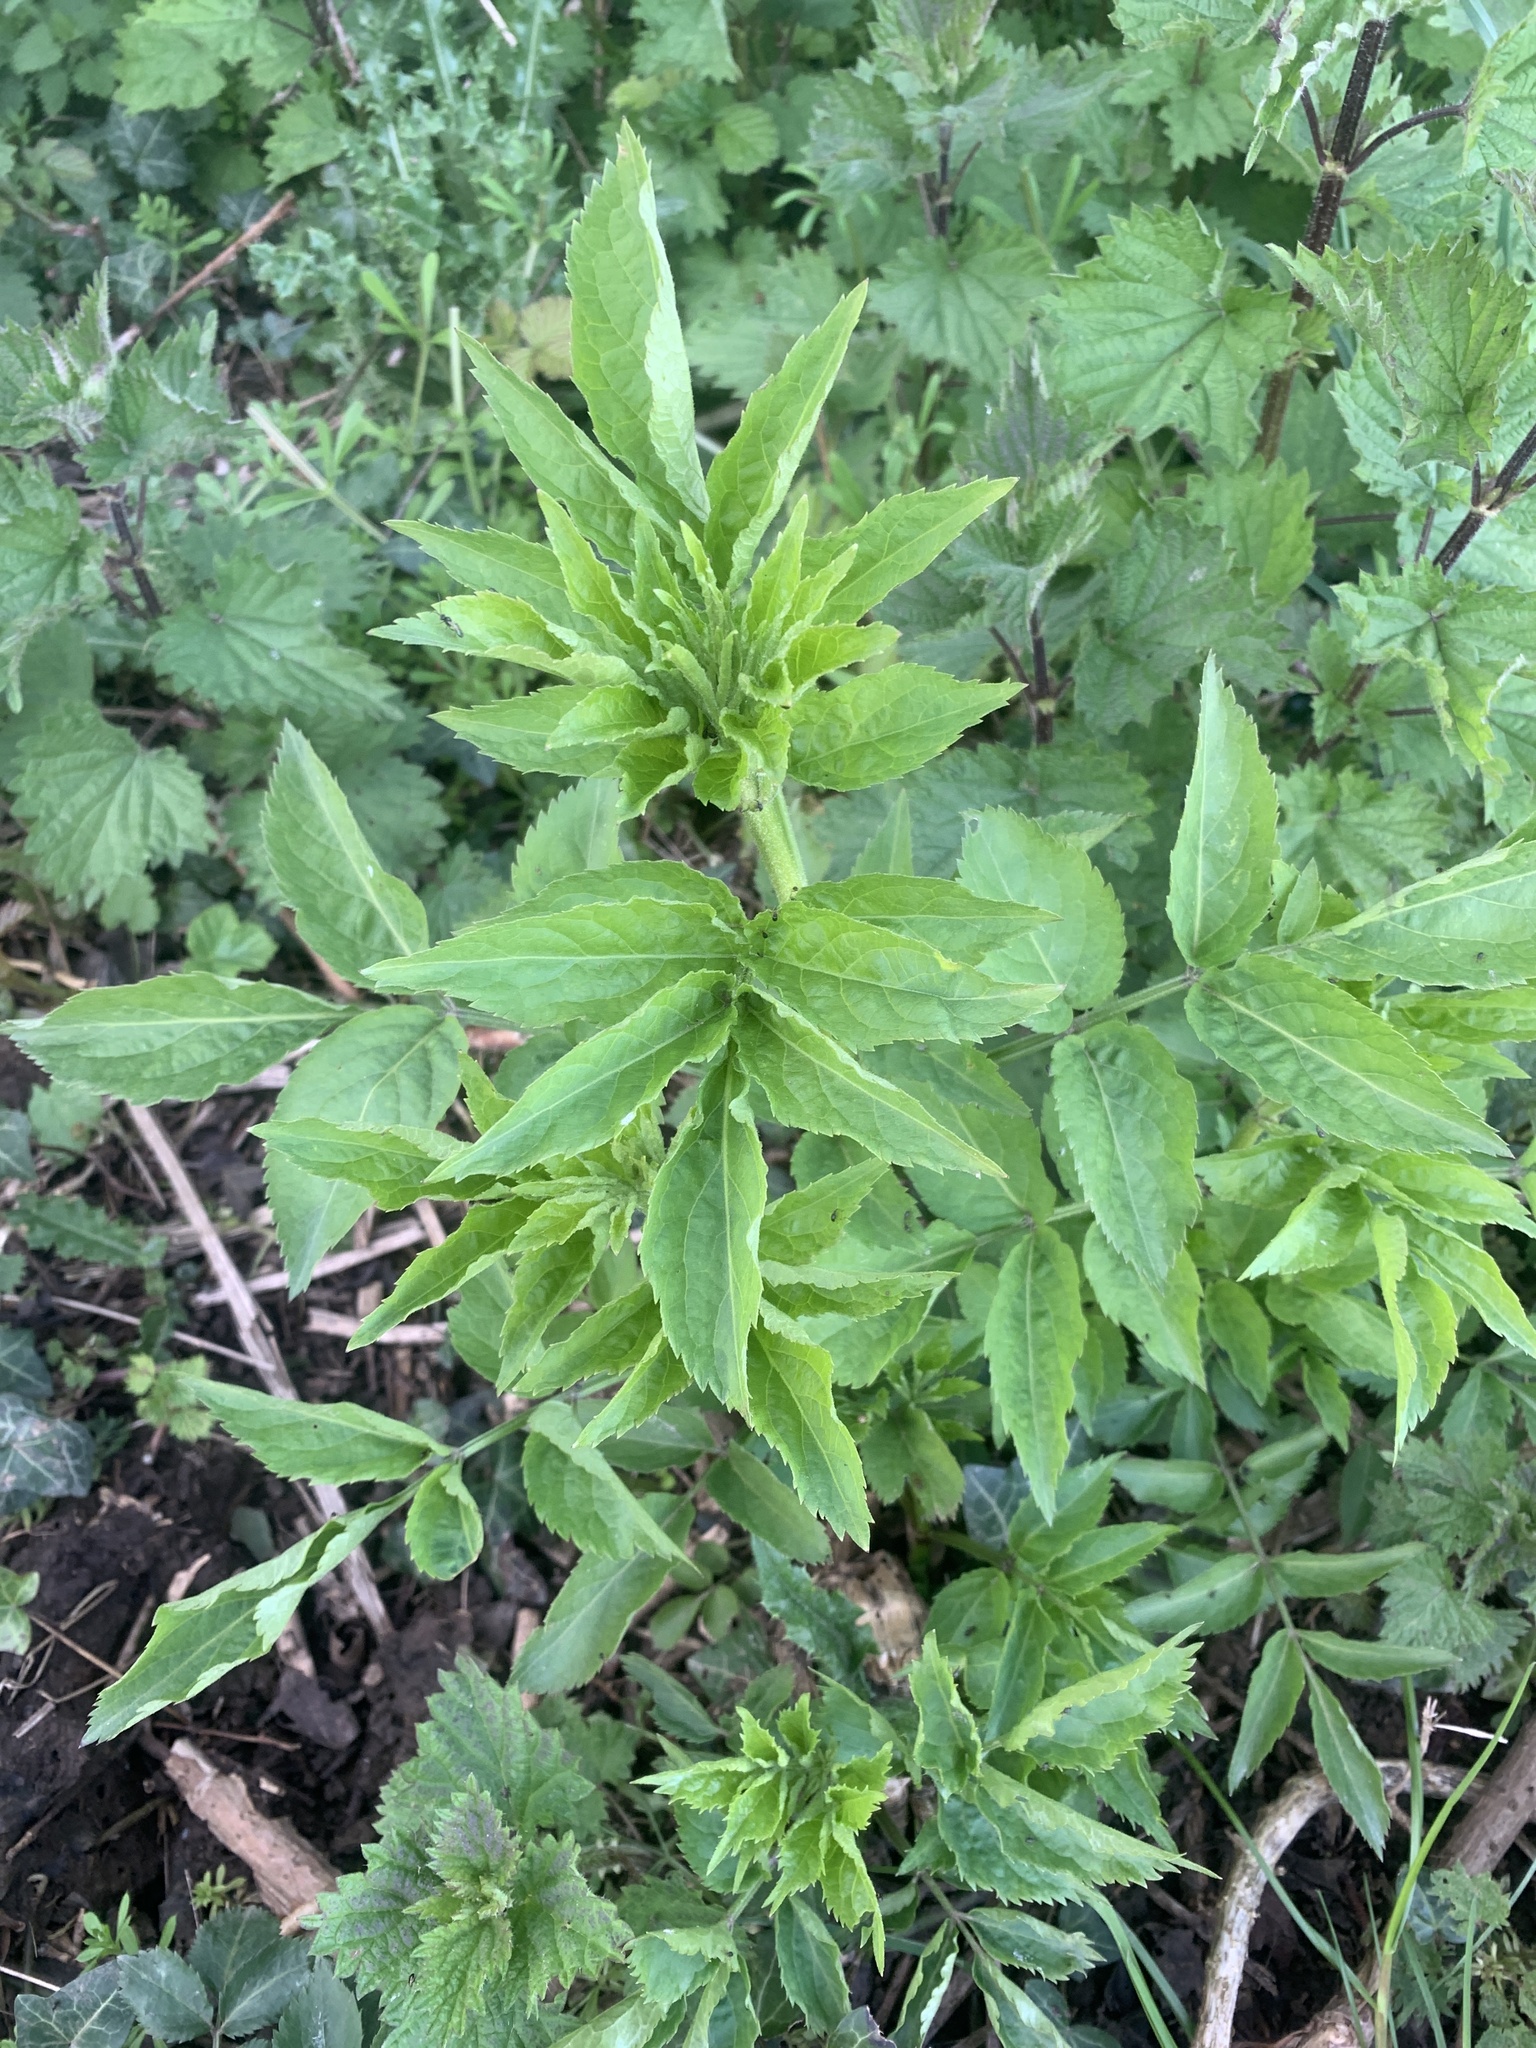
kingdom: Plantae
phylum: Tracheophyta
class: Magnoliopsida
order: Dipsacales
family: Viburnaceae
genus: Sambucus
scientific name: Sambucus nigra
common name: Elder
